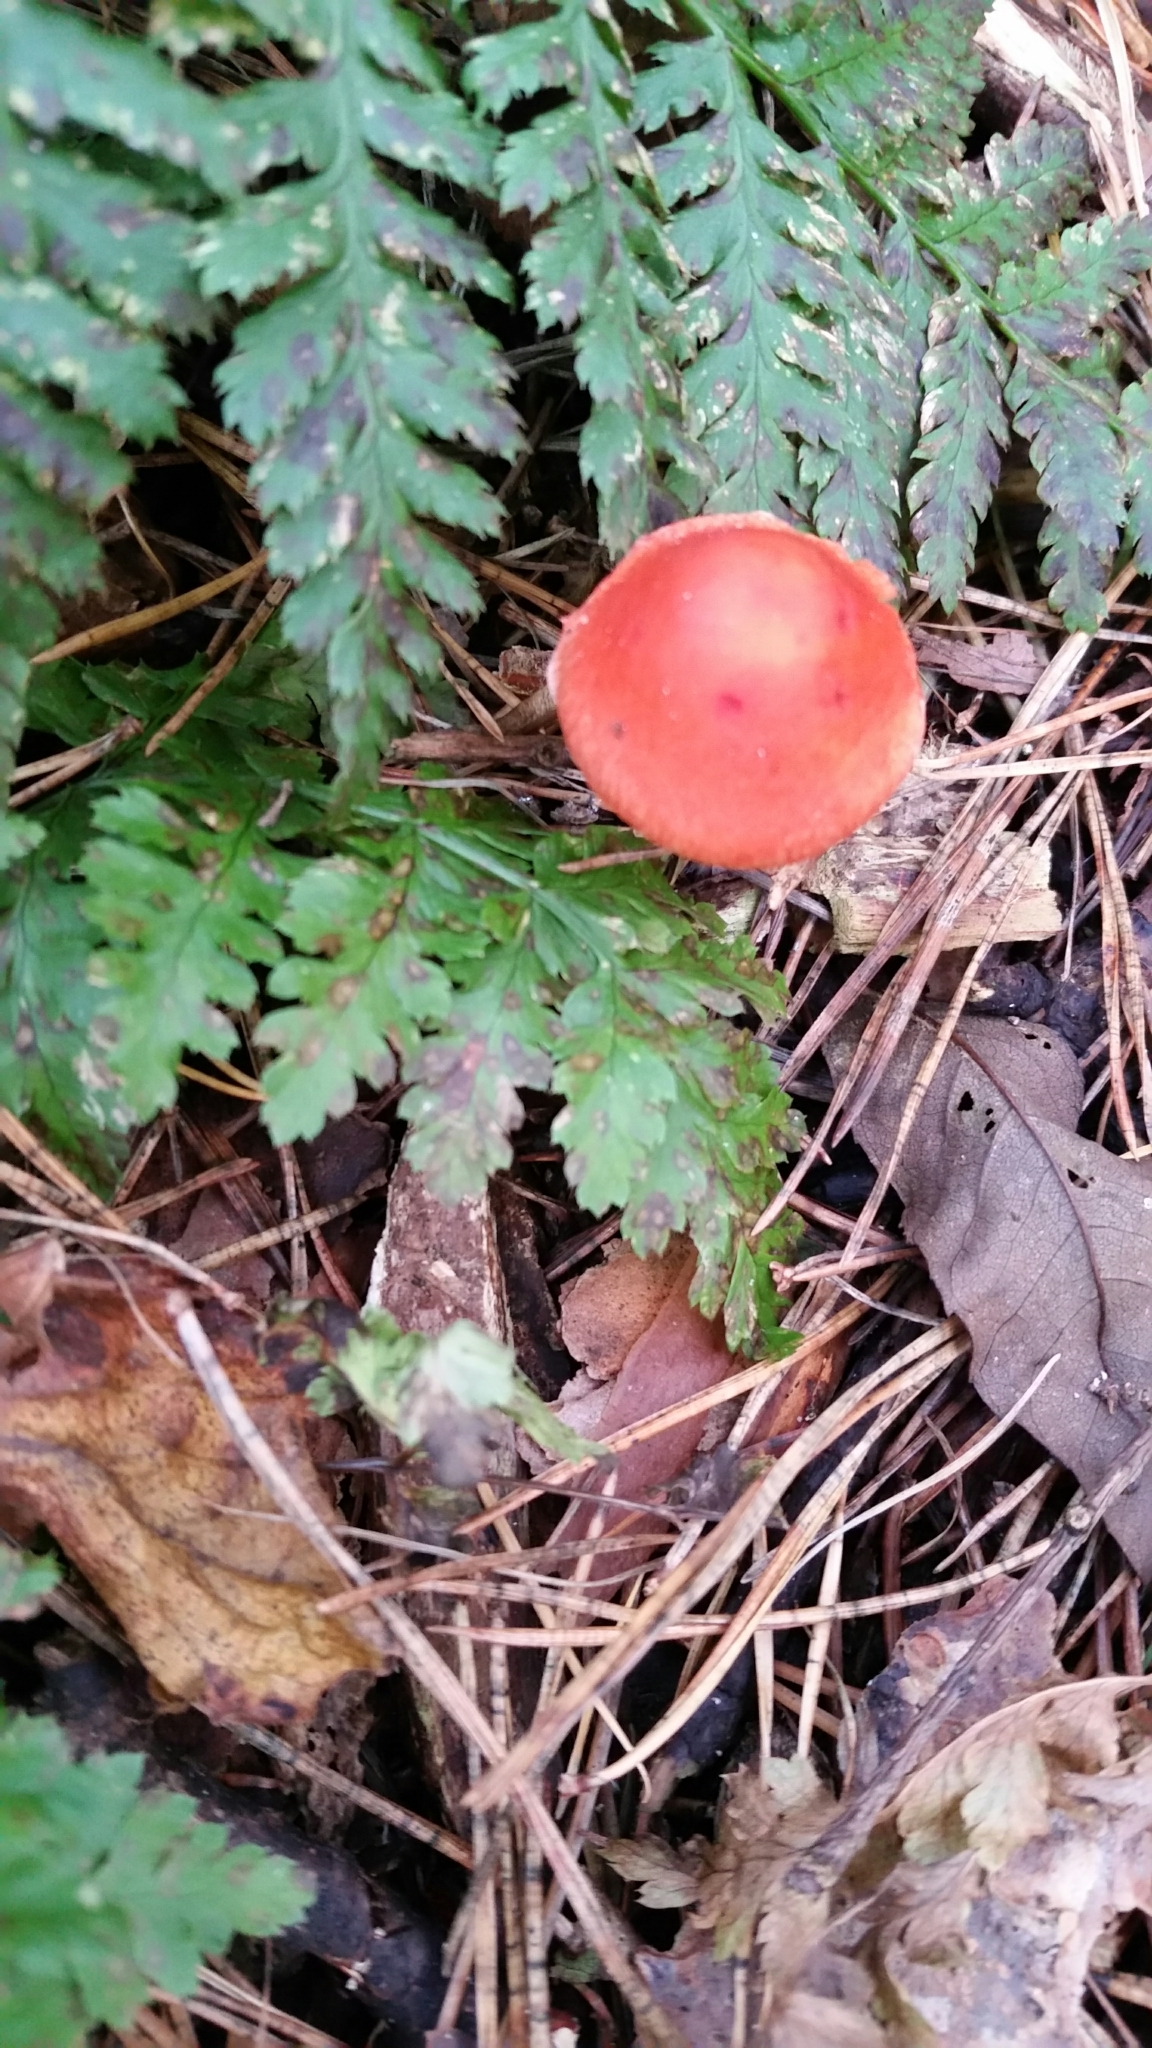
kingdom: Fungi
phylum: Basidiomycota
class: Agaricomycetes
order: Agaricales
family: Strophariaceae
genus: Leratiomyces
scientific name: Leratiomyces ceres
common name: Redlead roundhead
